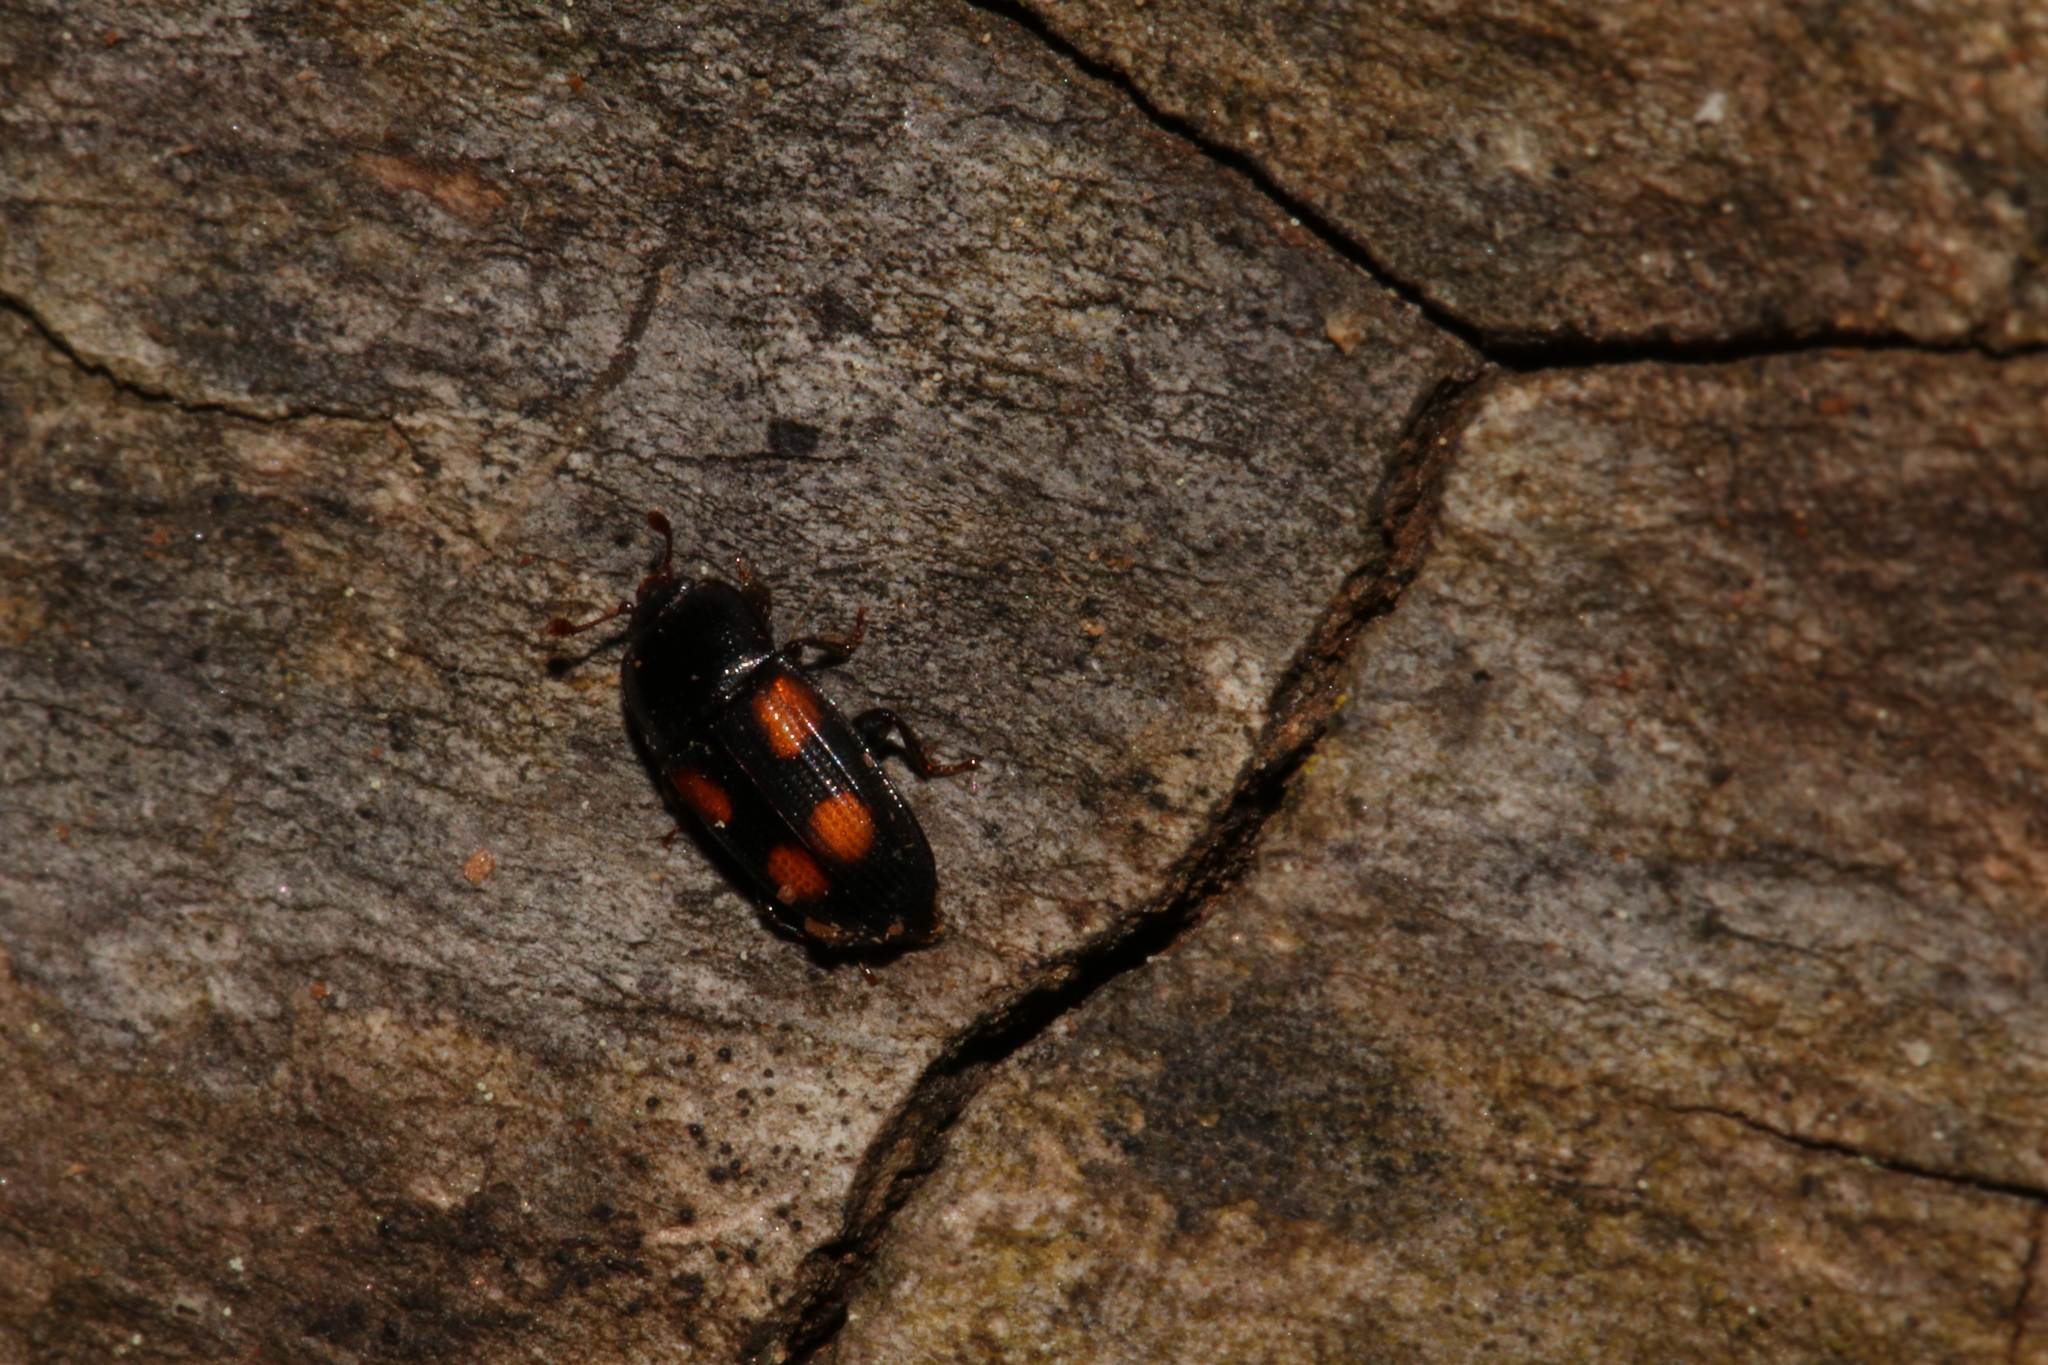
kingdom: Animalia
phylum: Arthropoda
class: Insecta
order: Coleoptera
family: Nitidulidae
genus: Ipidia
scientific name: Ipidia binotata
